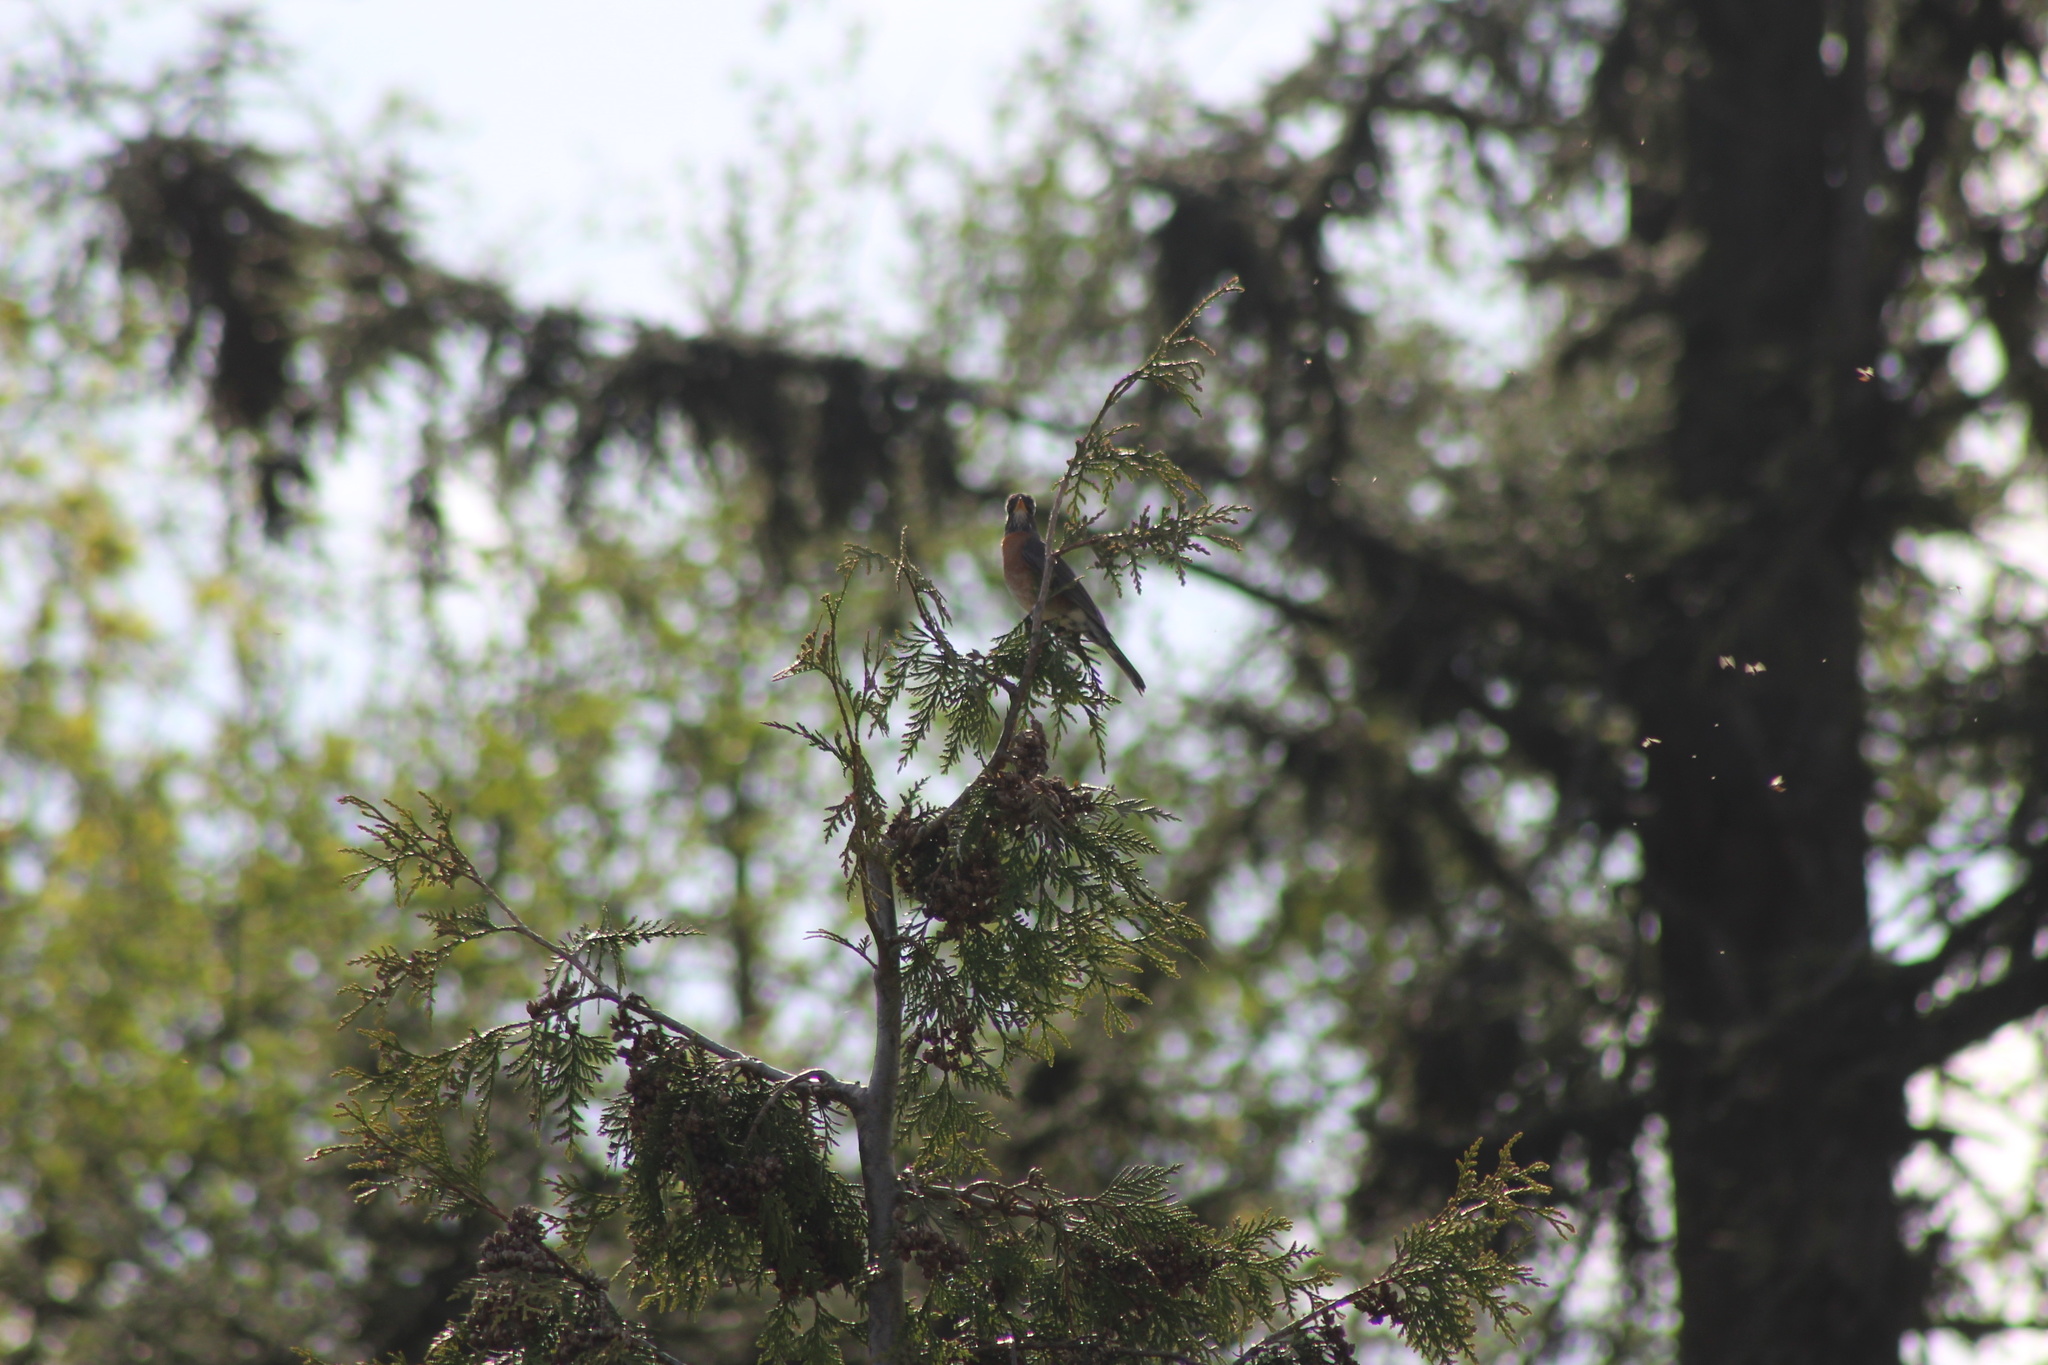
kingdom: Animalia
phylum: Chordata
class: Aves
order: Passeriformes
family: Turdidae
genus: Turdus
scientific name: Turdus migratorius
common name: American robin
